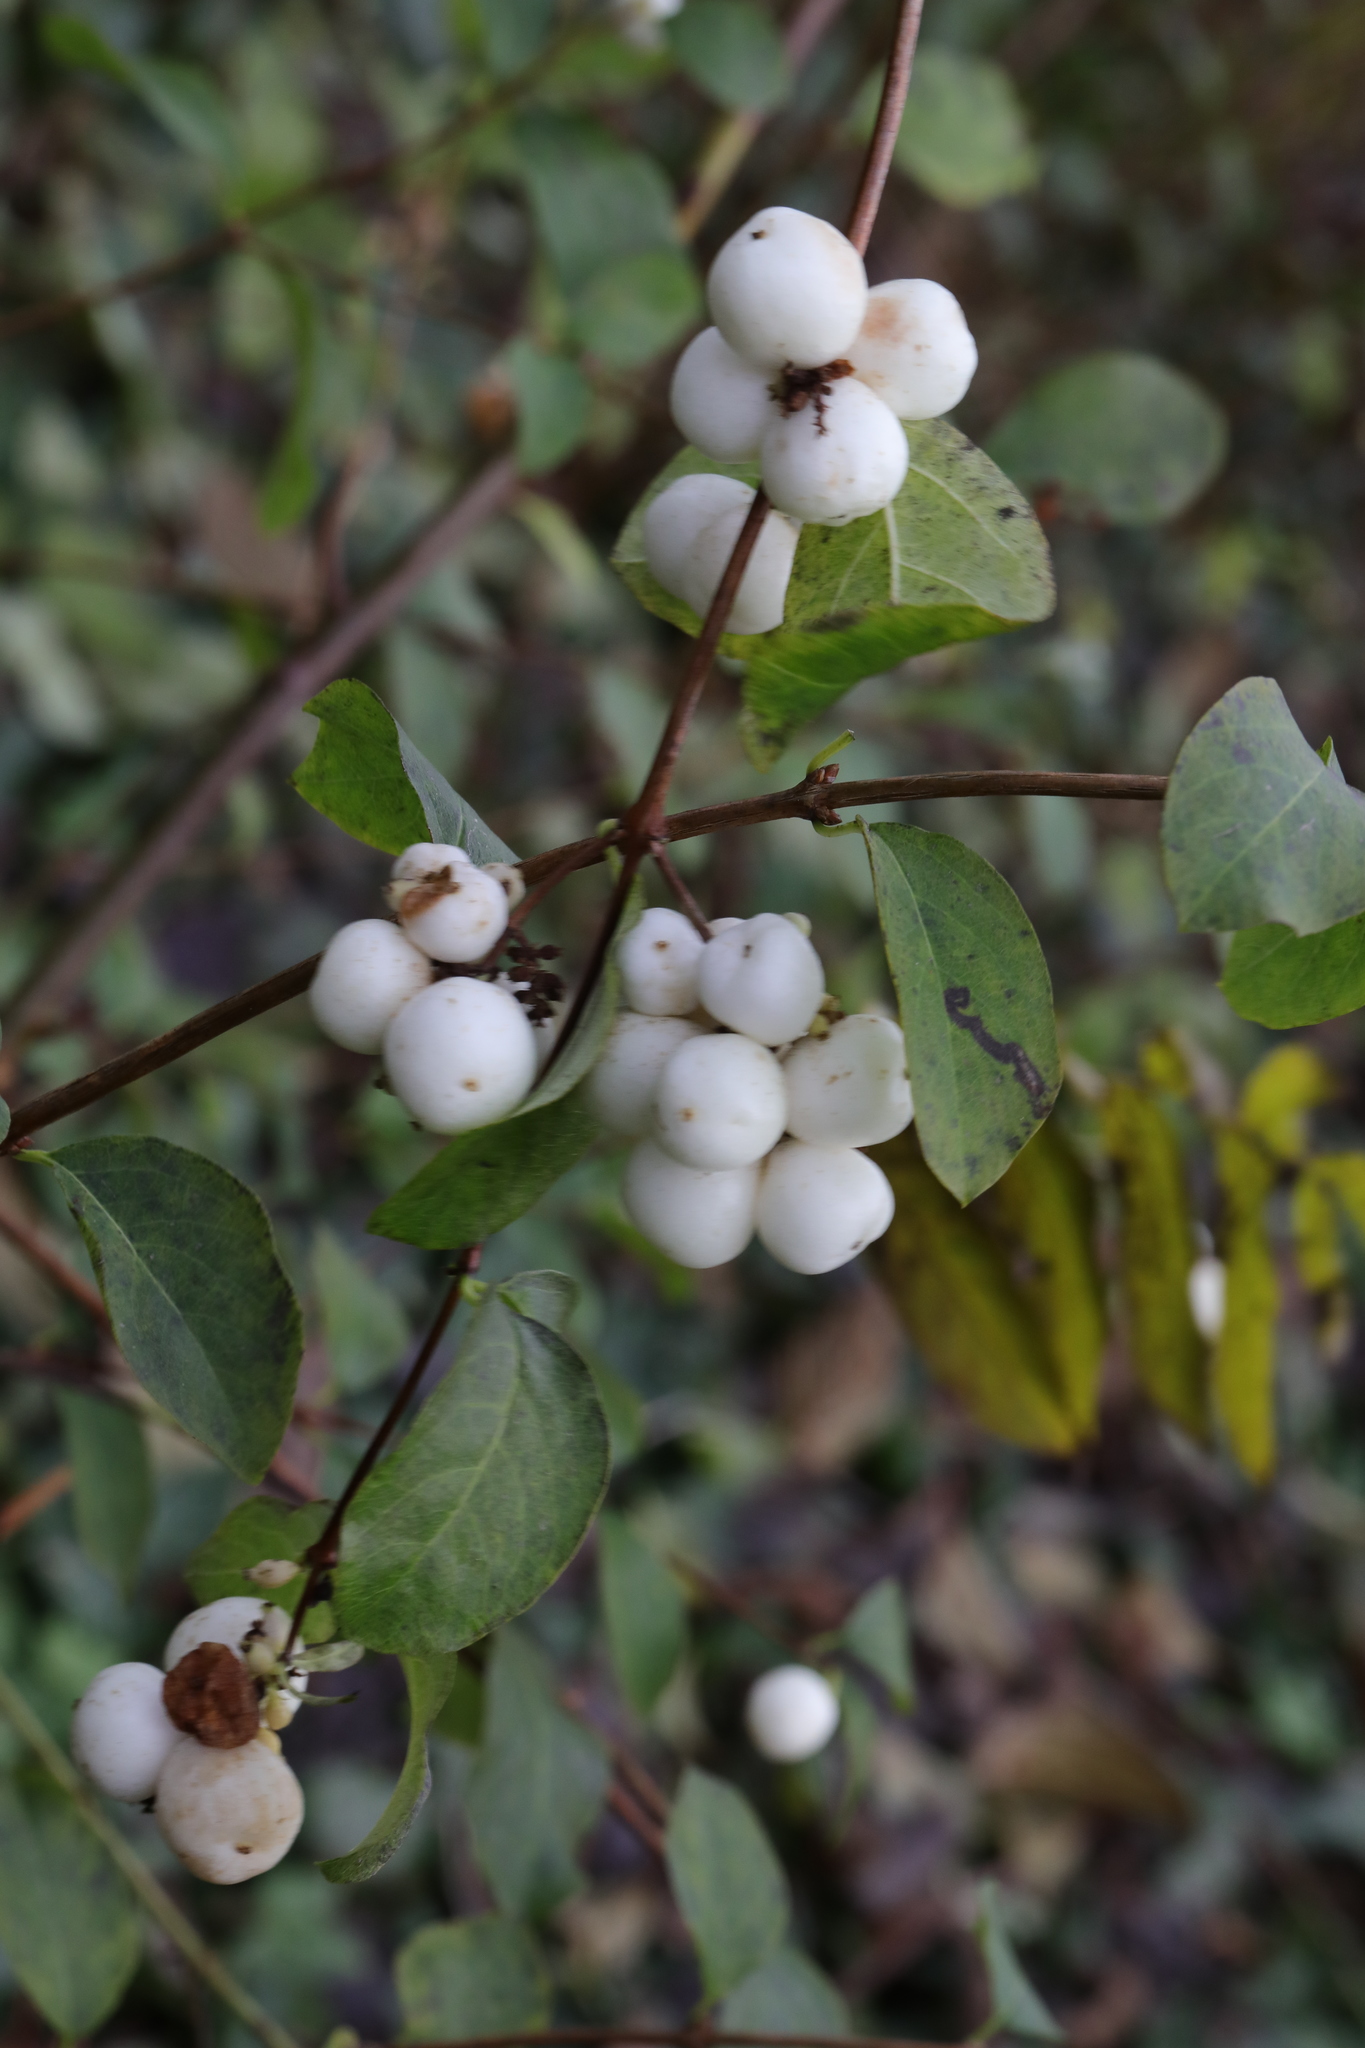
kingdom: Plantae
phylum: Tracheophyta
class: Magnoliopsida
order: Dipsacales
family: Caprifoliaceae
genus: Symphoricarpos
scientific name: Symphoricarpos albus
